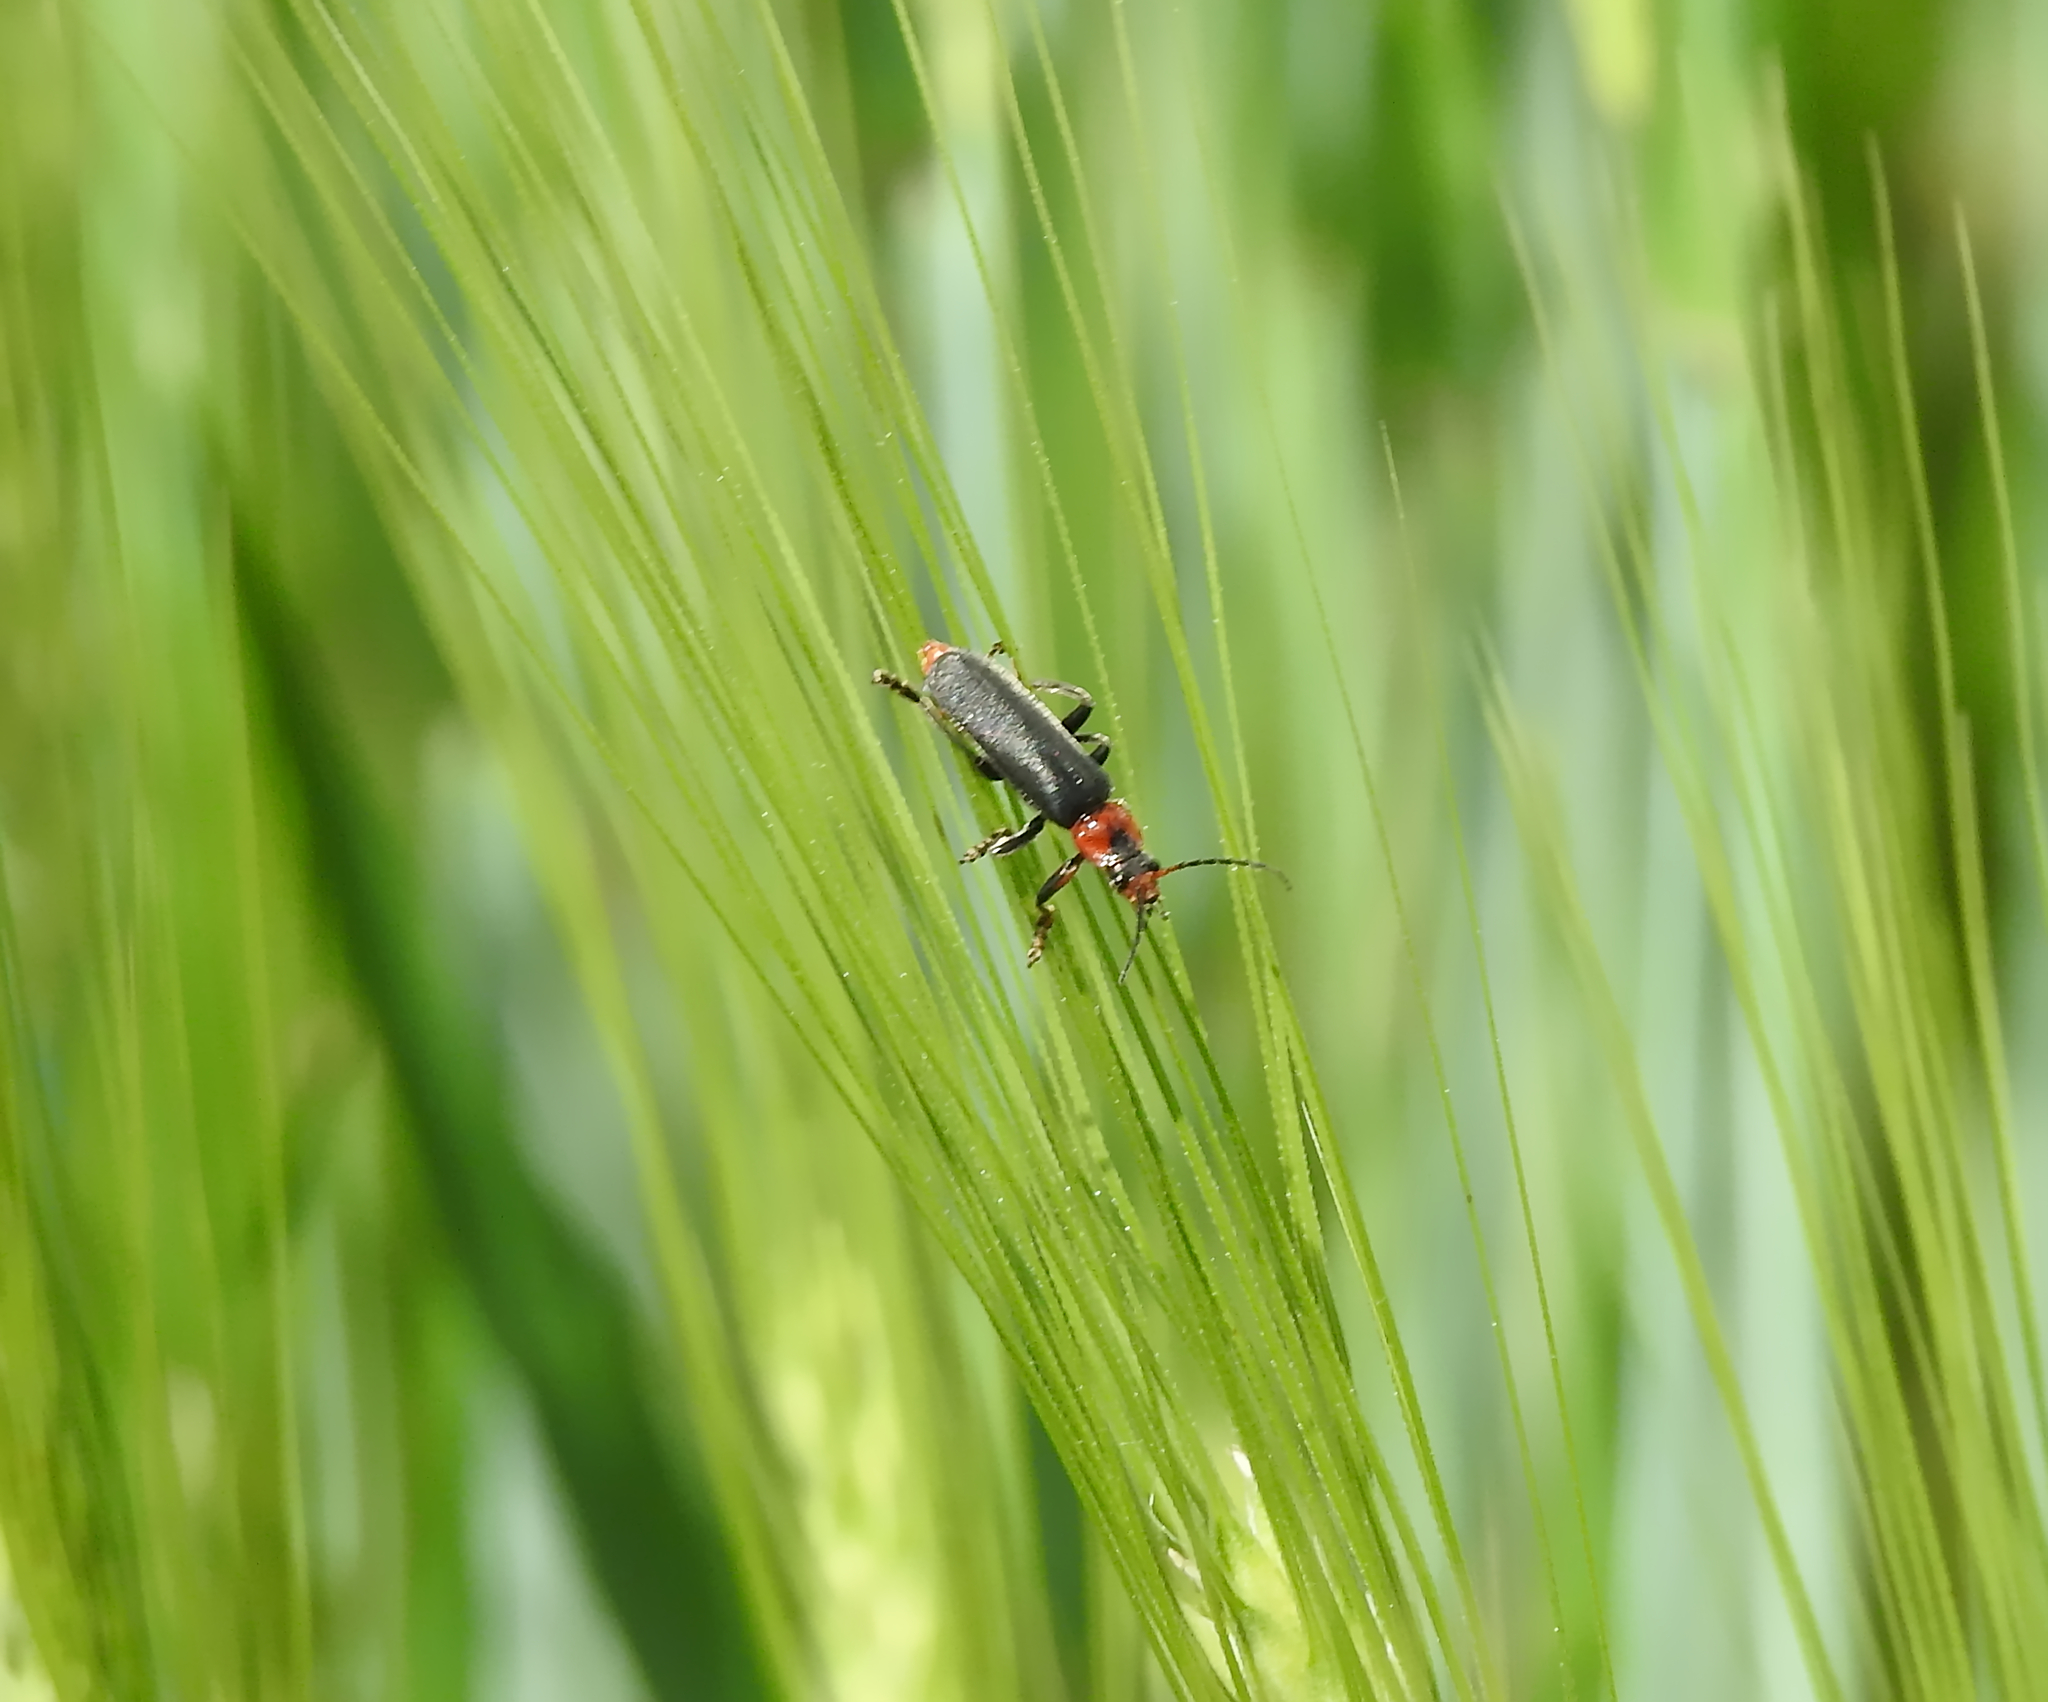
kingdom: Animalia
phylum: Arthropoda
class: Insecta
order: Coleoptera
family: Cantharidae
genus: Cantharis
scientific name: Cantharis fusca
